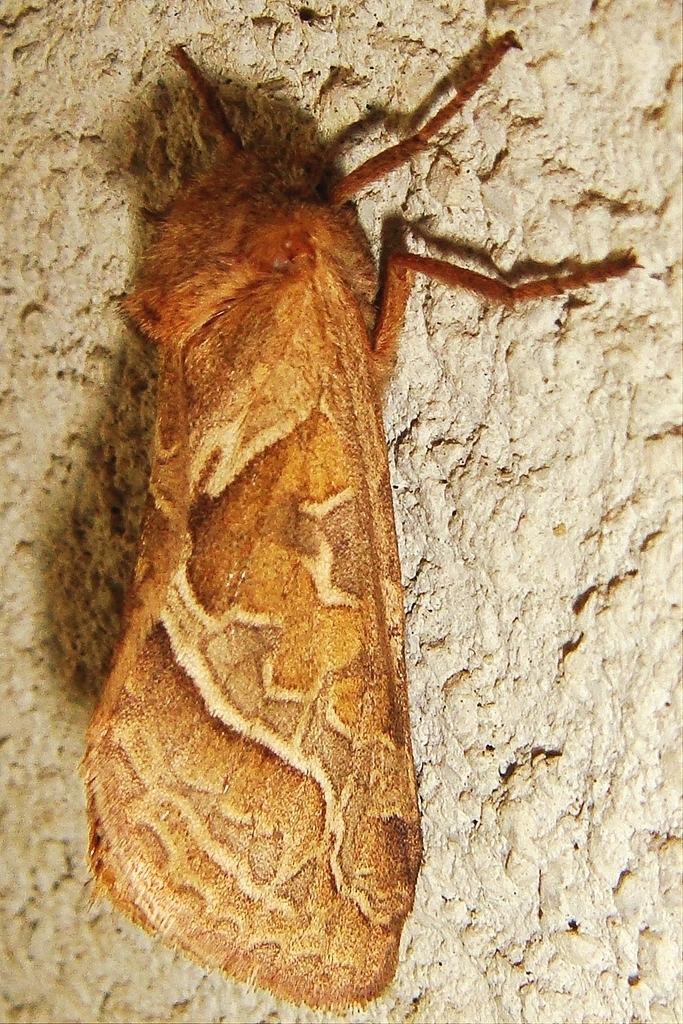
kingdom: Animalia
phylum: Arthropoda
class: Insecta
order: Lepidoptera
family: Hepialidae
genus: Triodia
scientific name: Triodia sylvina
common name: Orange swift
